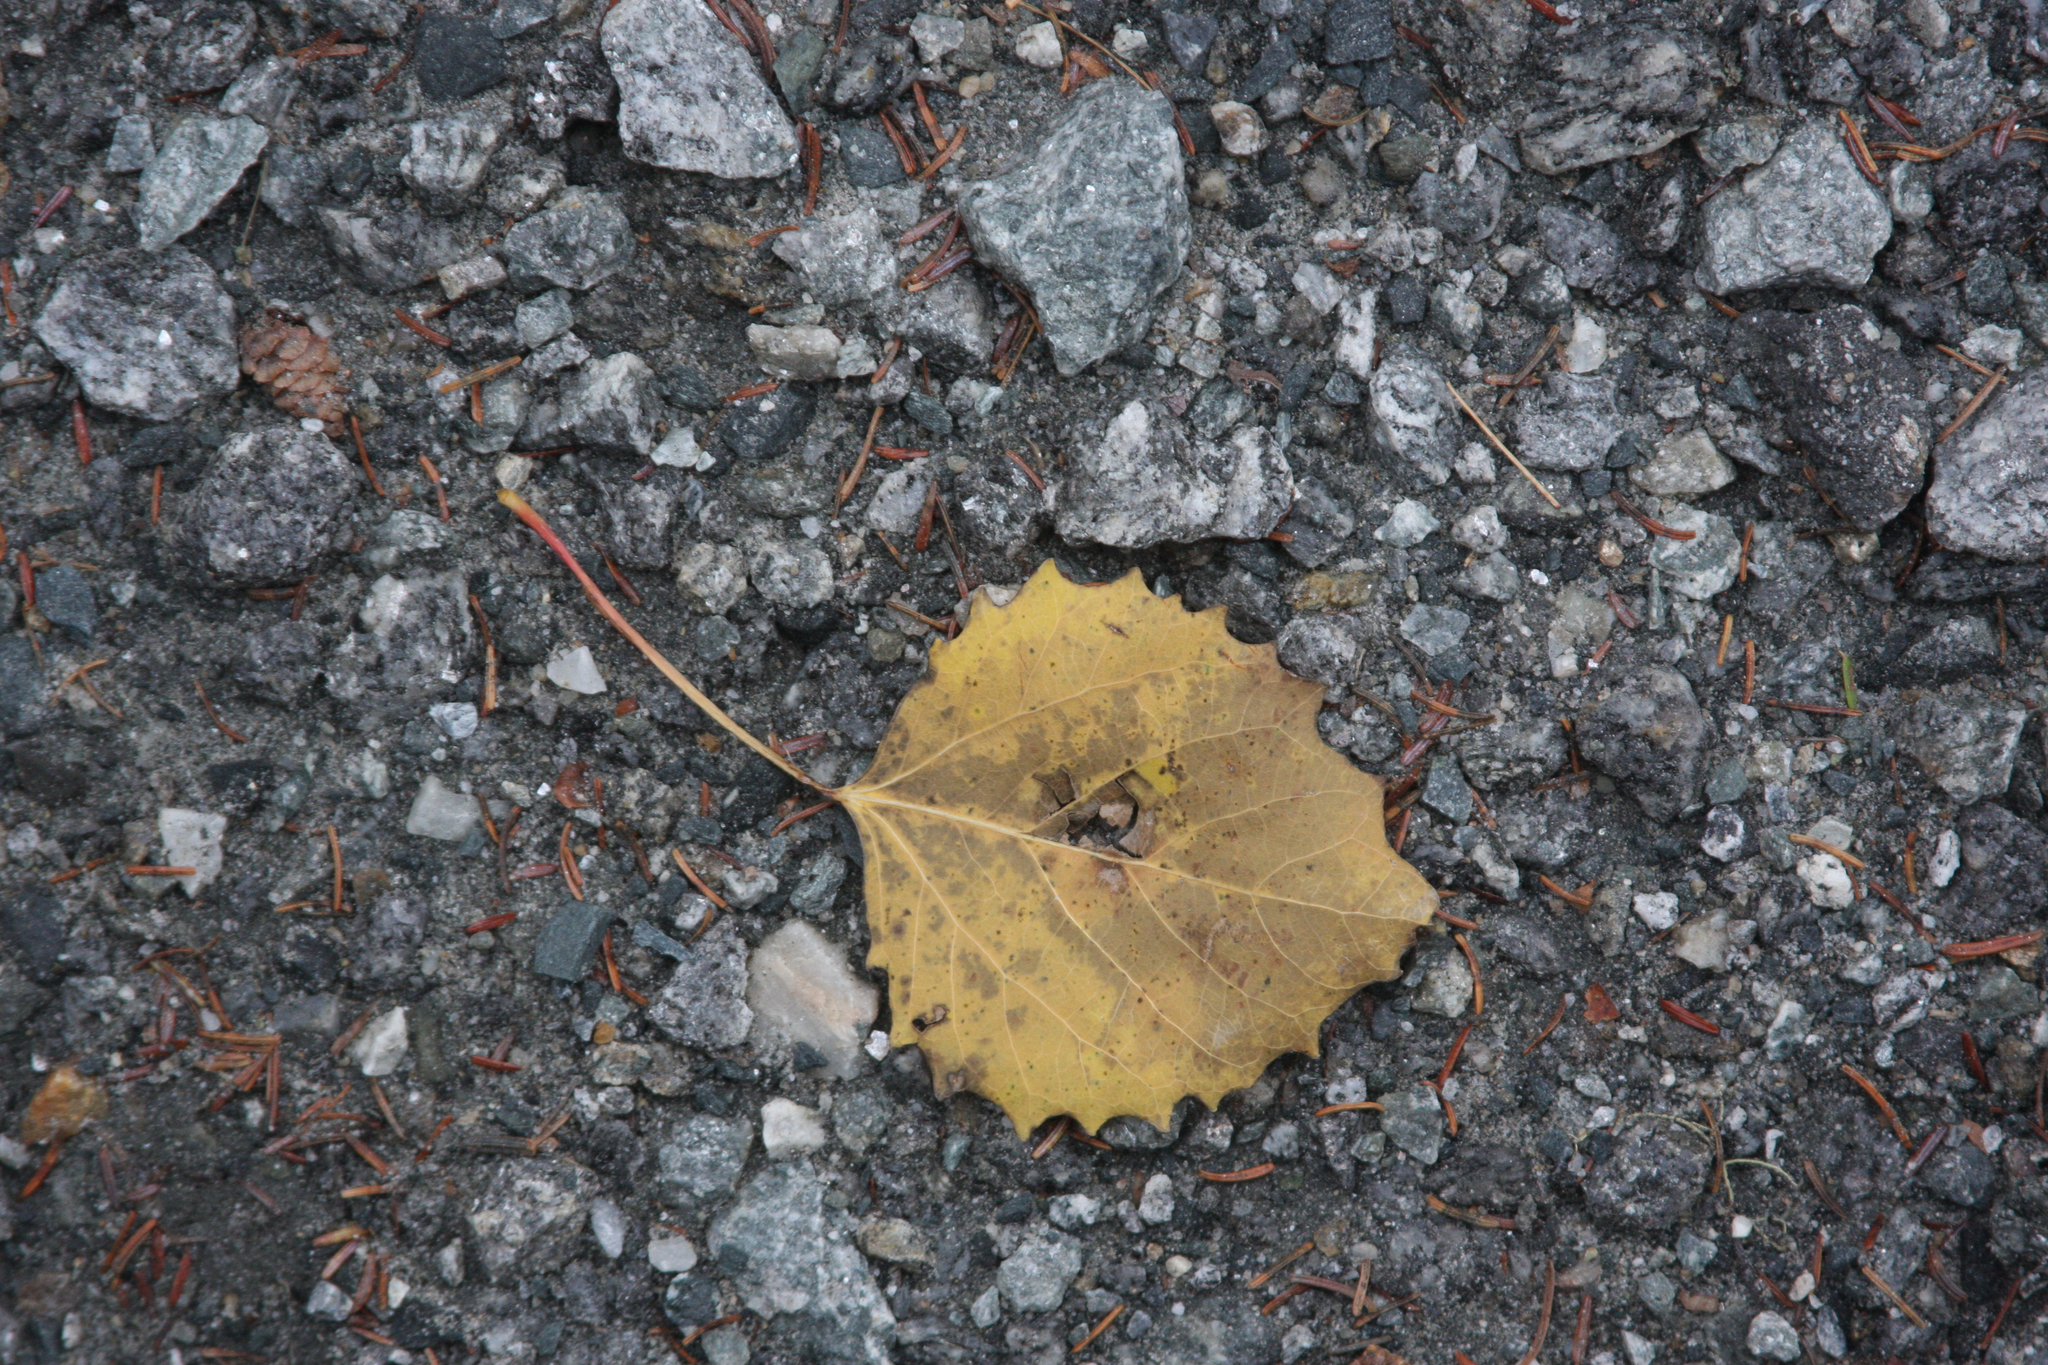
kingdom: Plantae
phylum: Tracheophyta
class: Magnoliopsida
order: Malpighiales
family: Salicaceae
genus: Populus
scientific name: Populus grandidentata
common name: Bigtooth aspen
